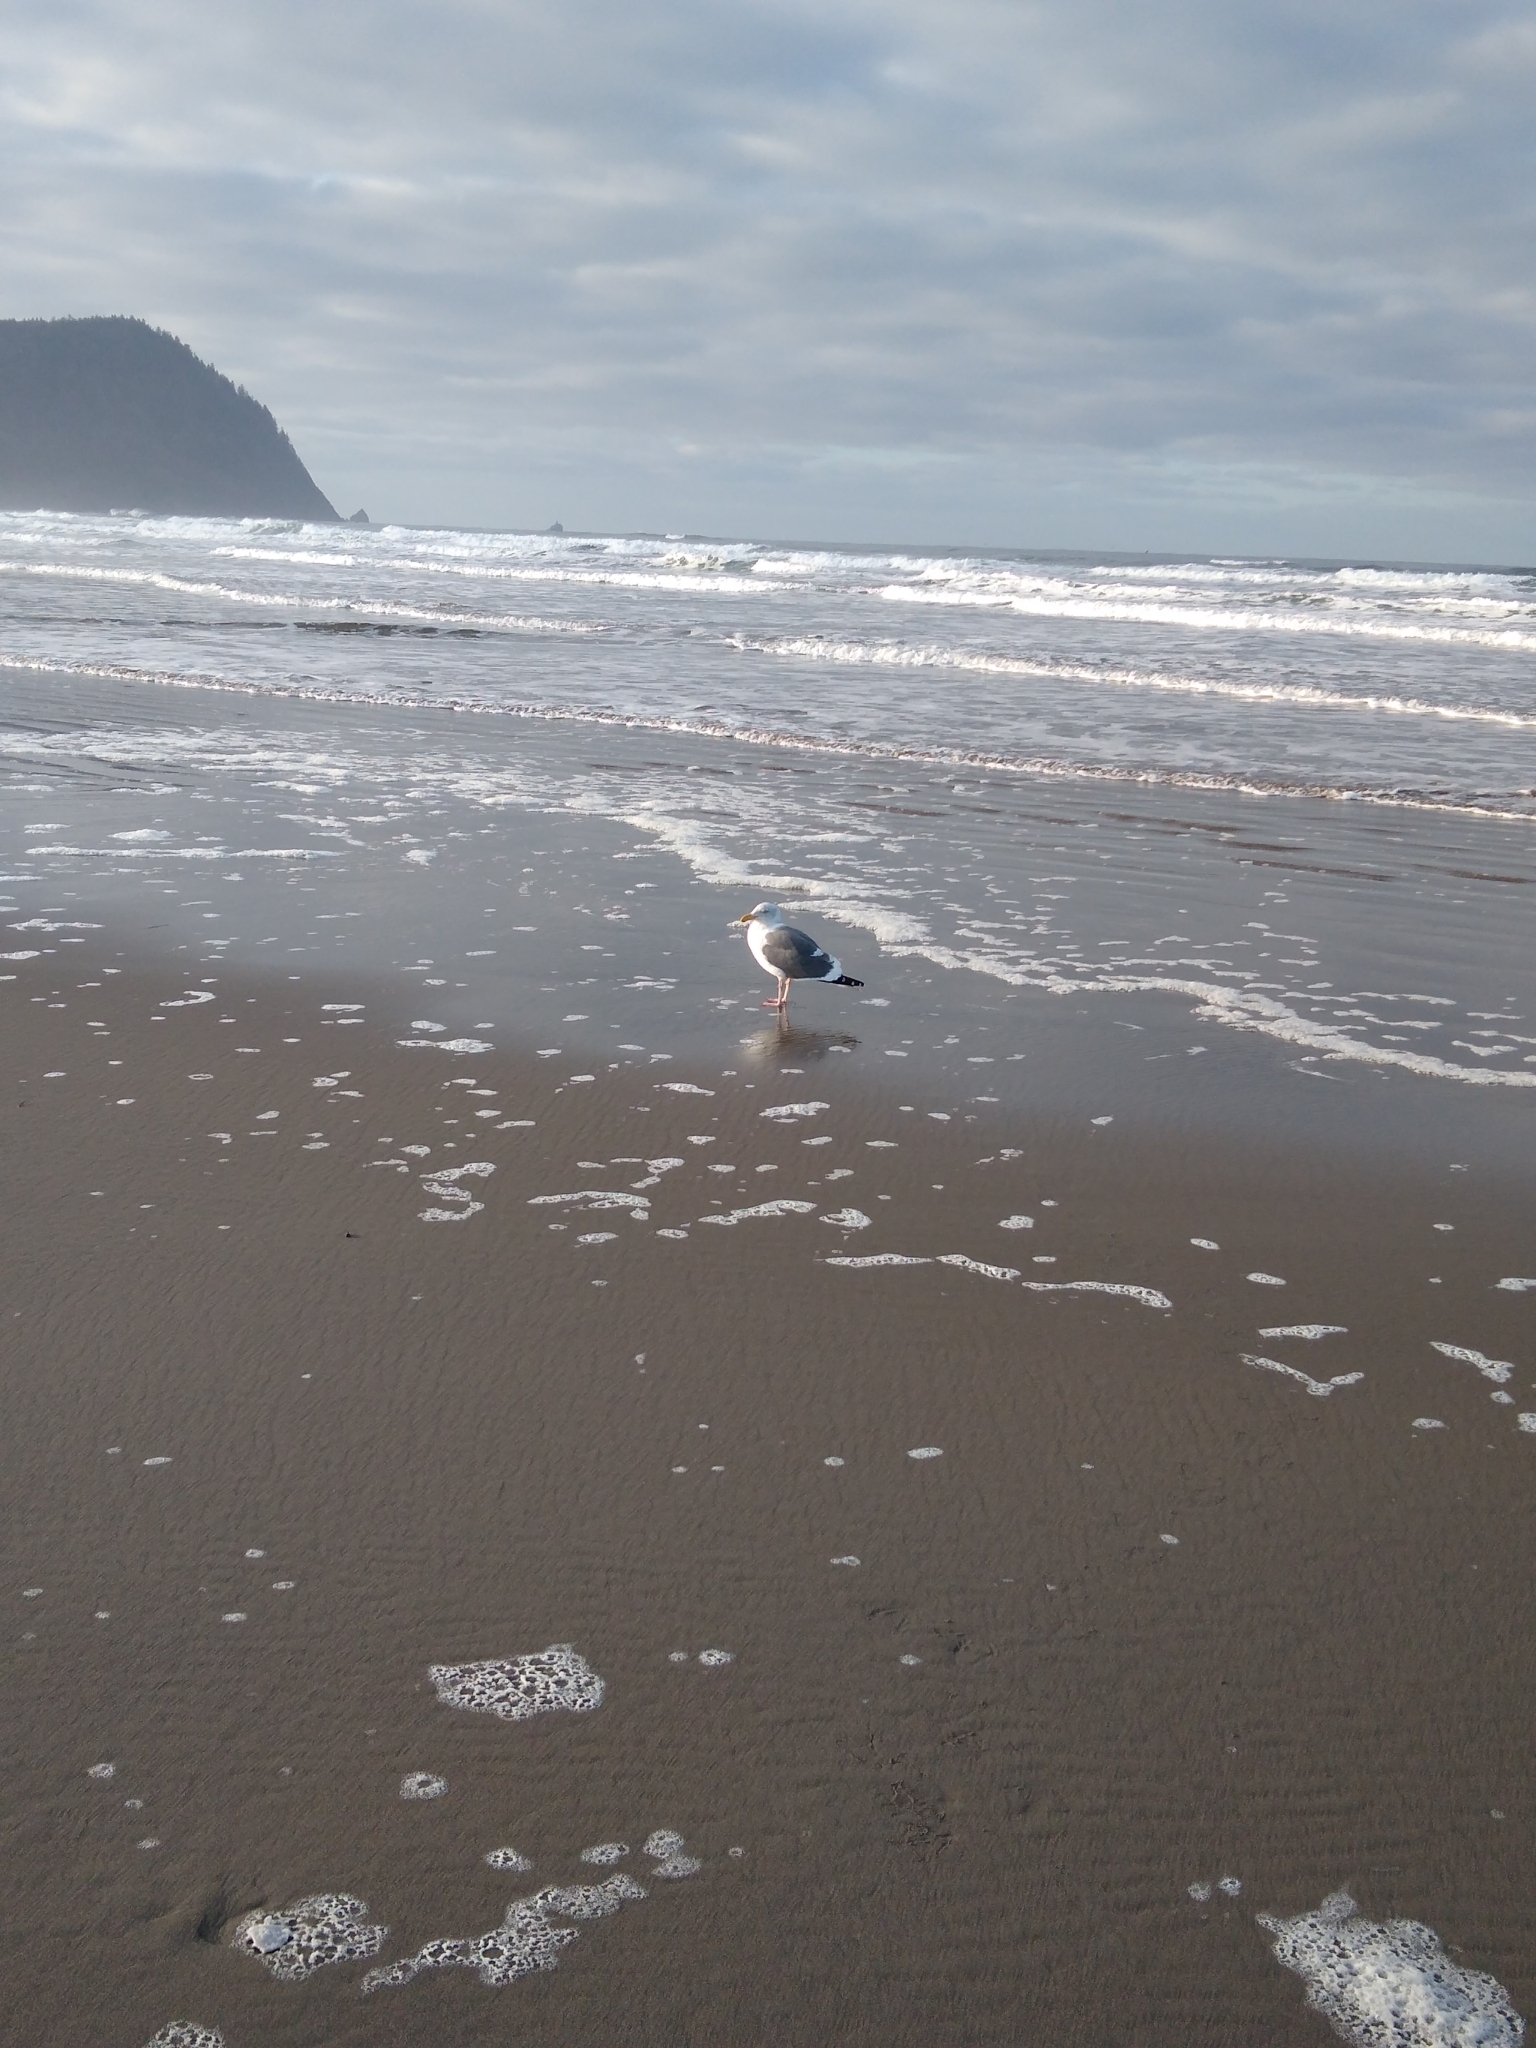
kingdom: Animalia
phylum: Chordata
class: Aves
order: Charadriiformes
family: Laridae
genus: Larus
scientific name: Larus occidentalis
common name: Western gull
